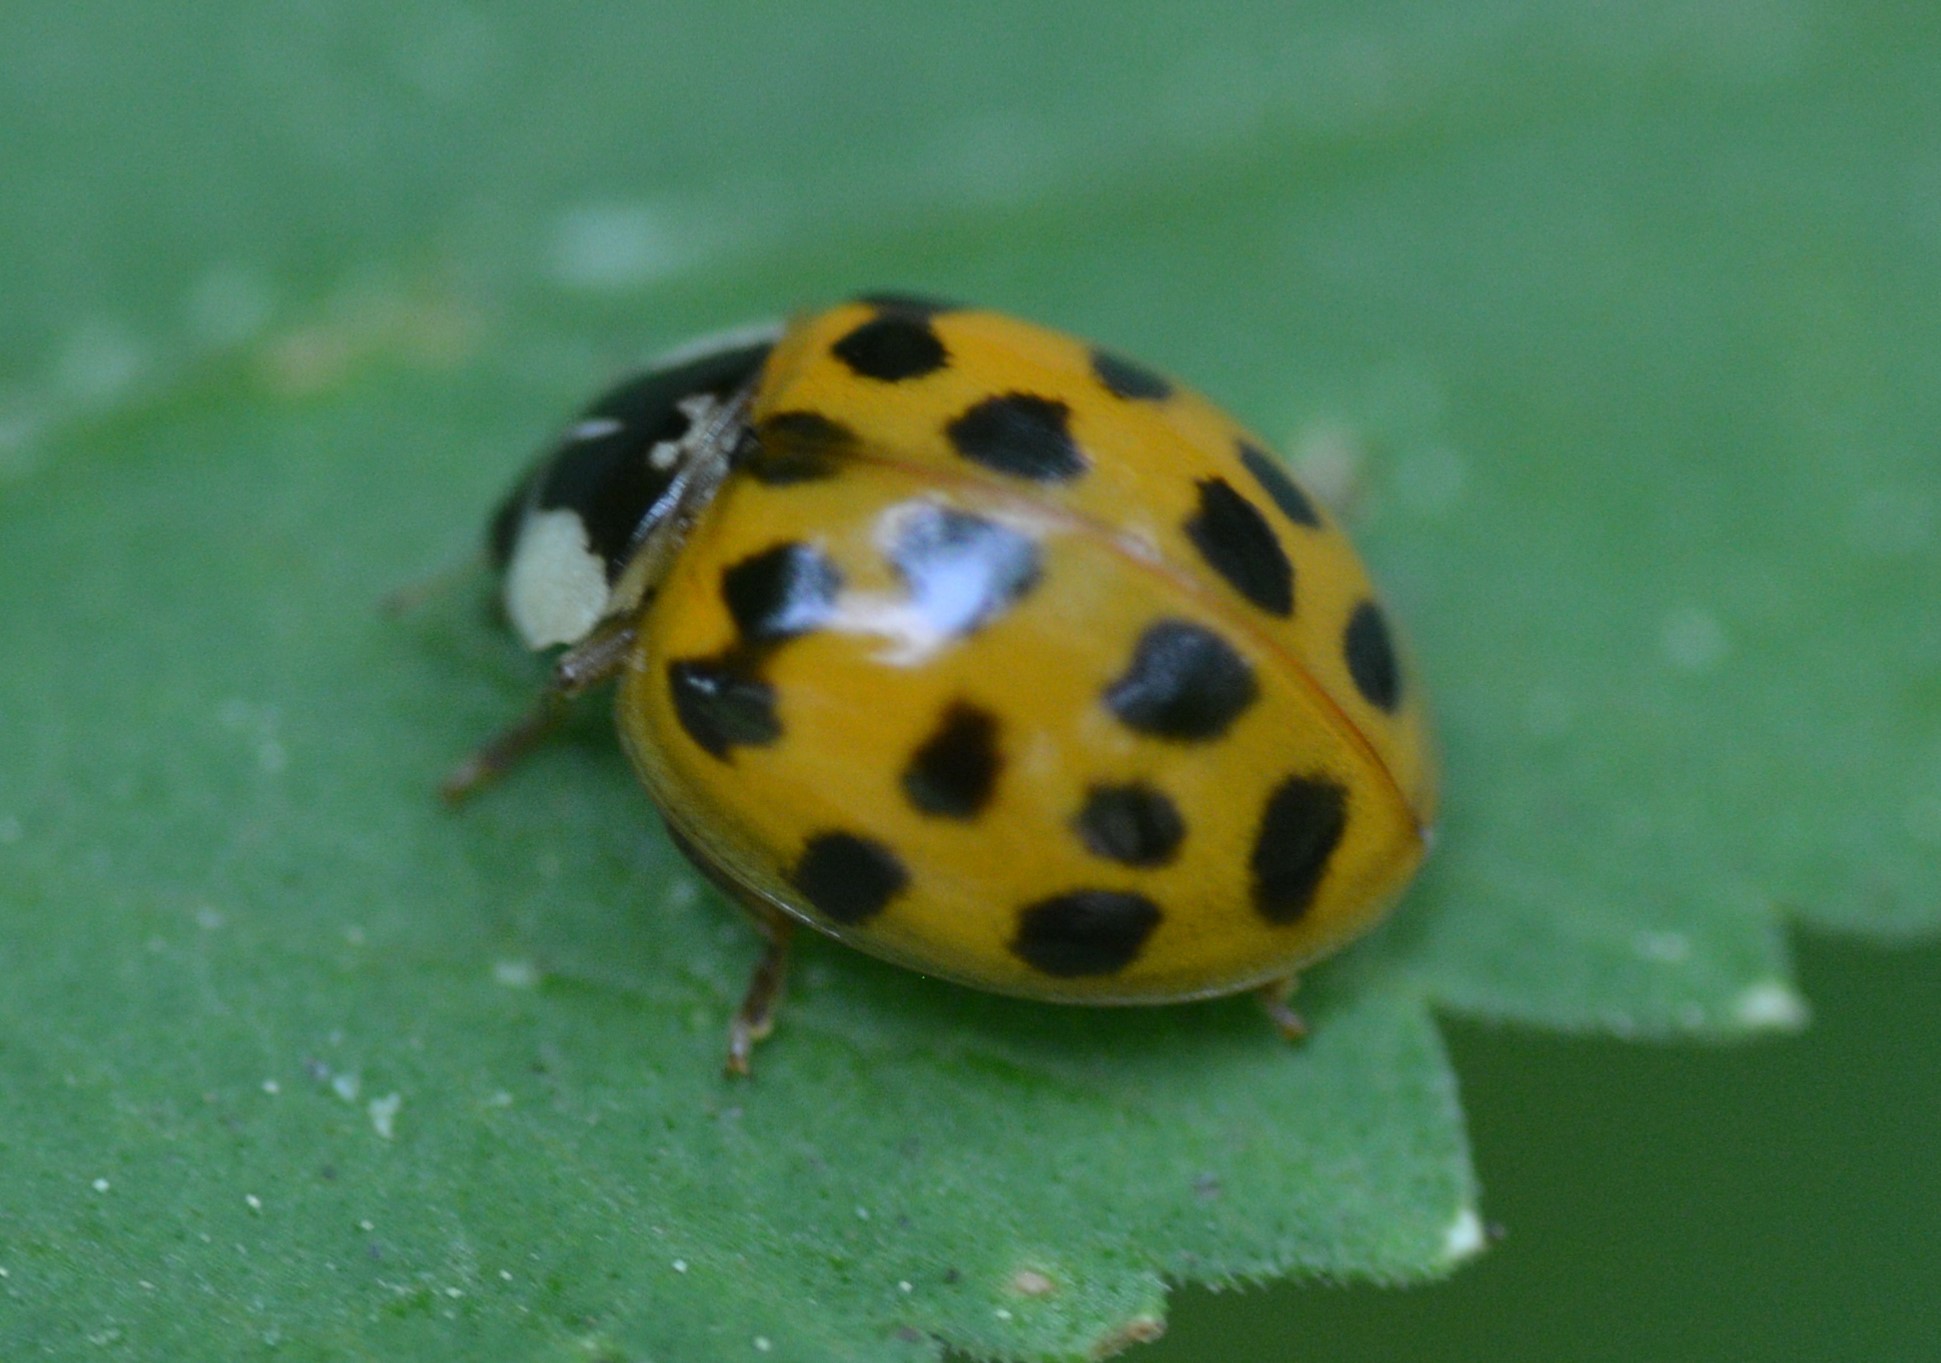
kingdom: Animalia
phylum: Arthropoda
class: Insecta
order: Coleoptera
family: Coccinellidae
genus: Harmonia
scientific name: Harmonia axyridis
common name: Harlequin ladybird
